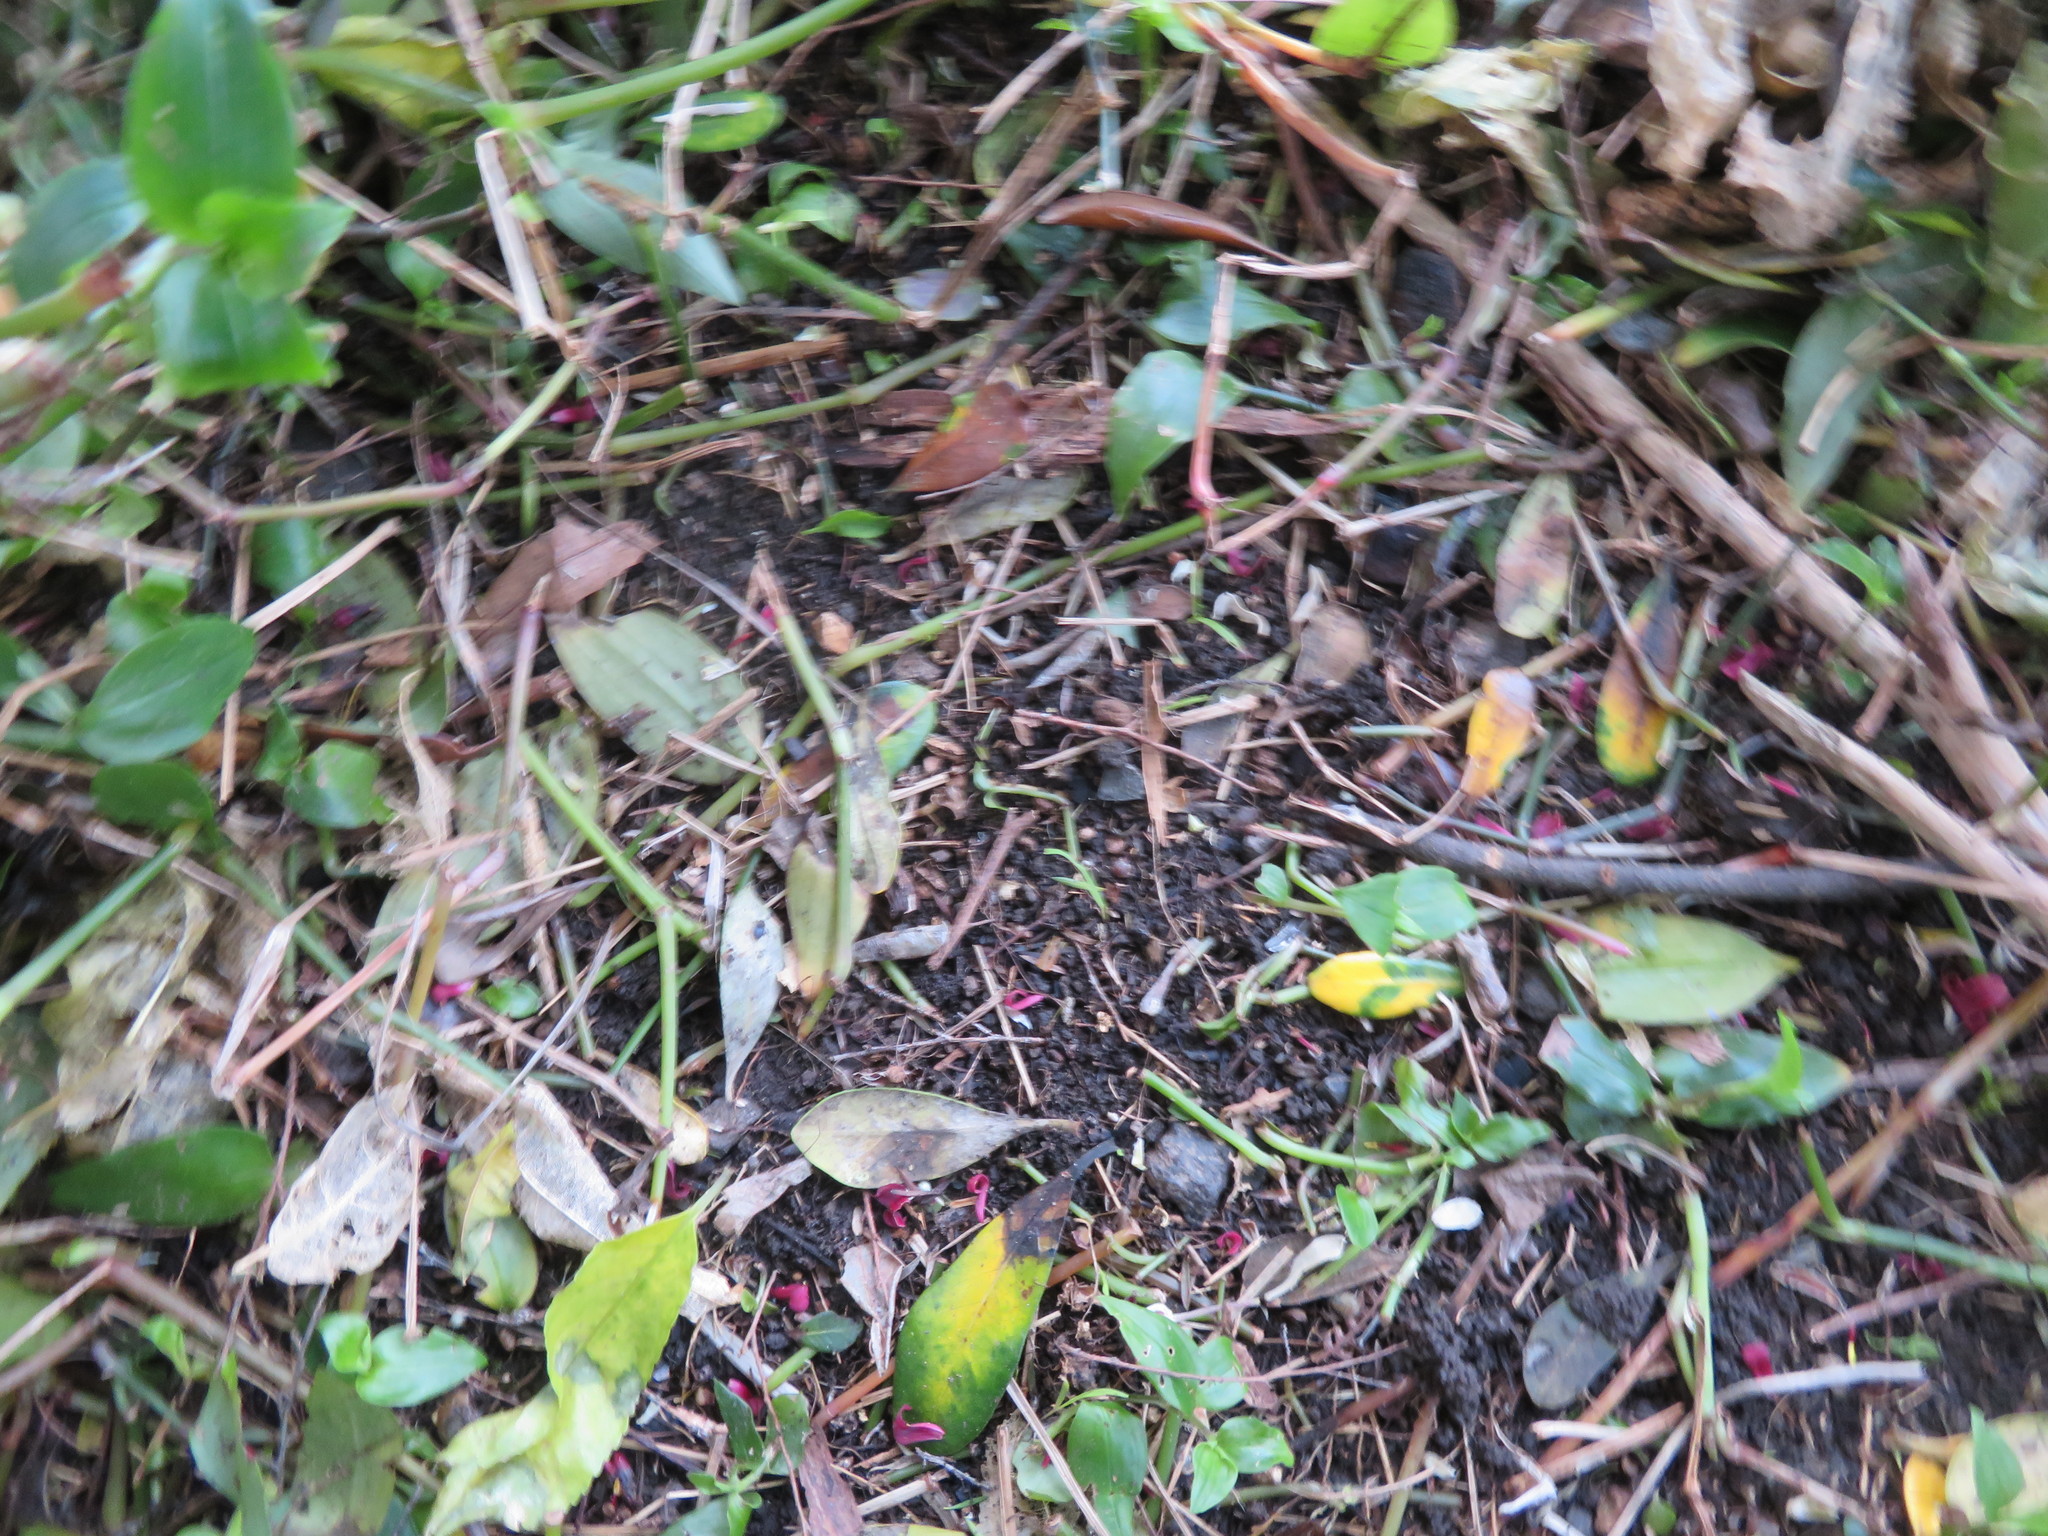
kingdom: Plantae
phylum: Tracheophyta
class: Liliopsida
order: Commelinales
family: Commelinaceae
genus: Tradescantia
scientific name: Tradescantia fluminensis
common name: Wandering-jew
